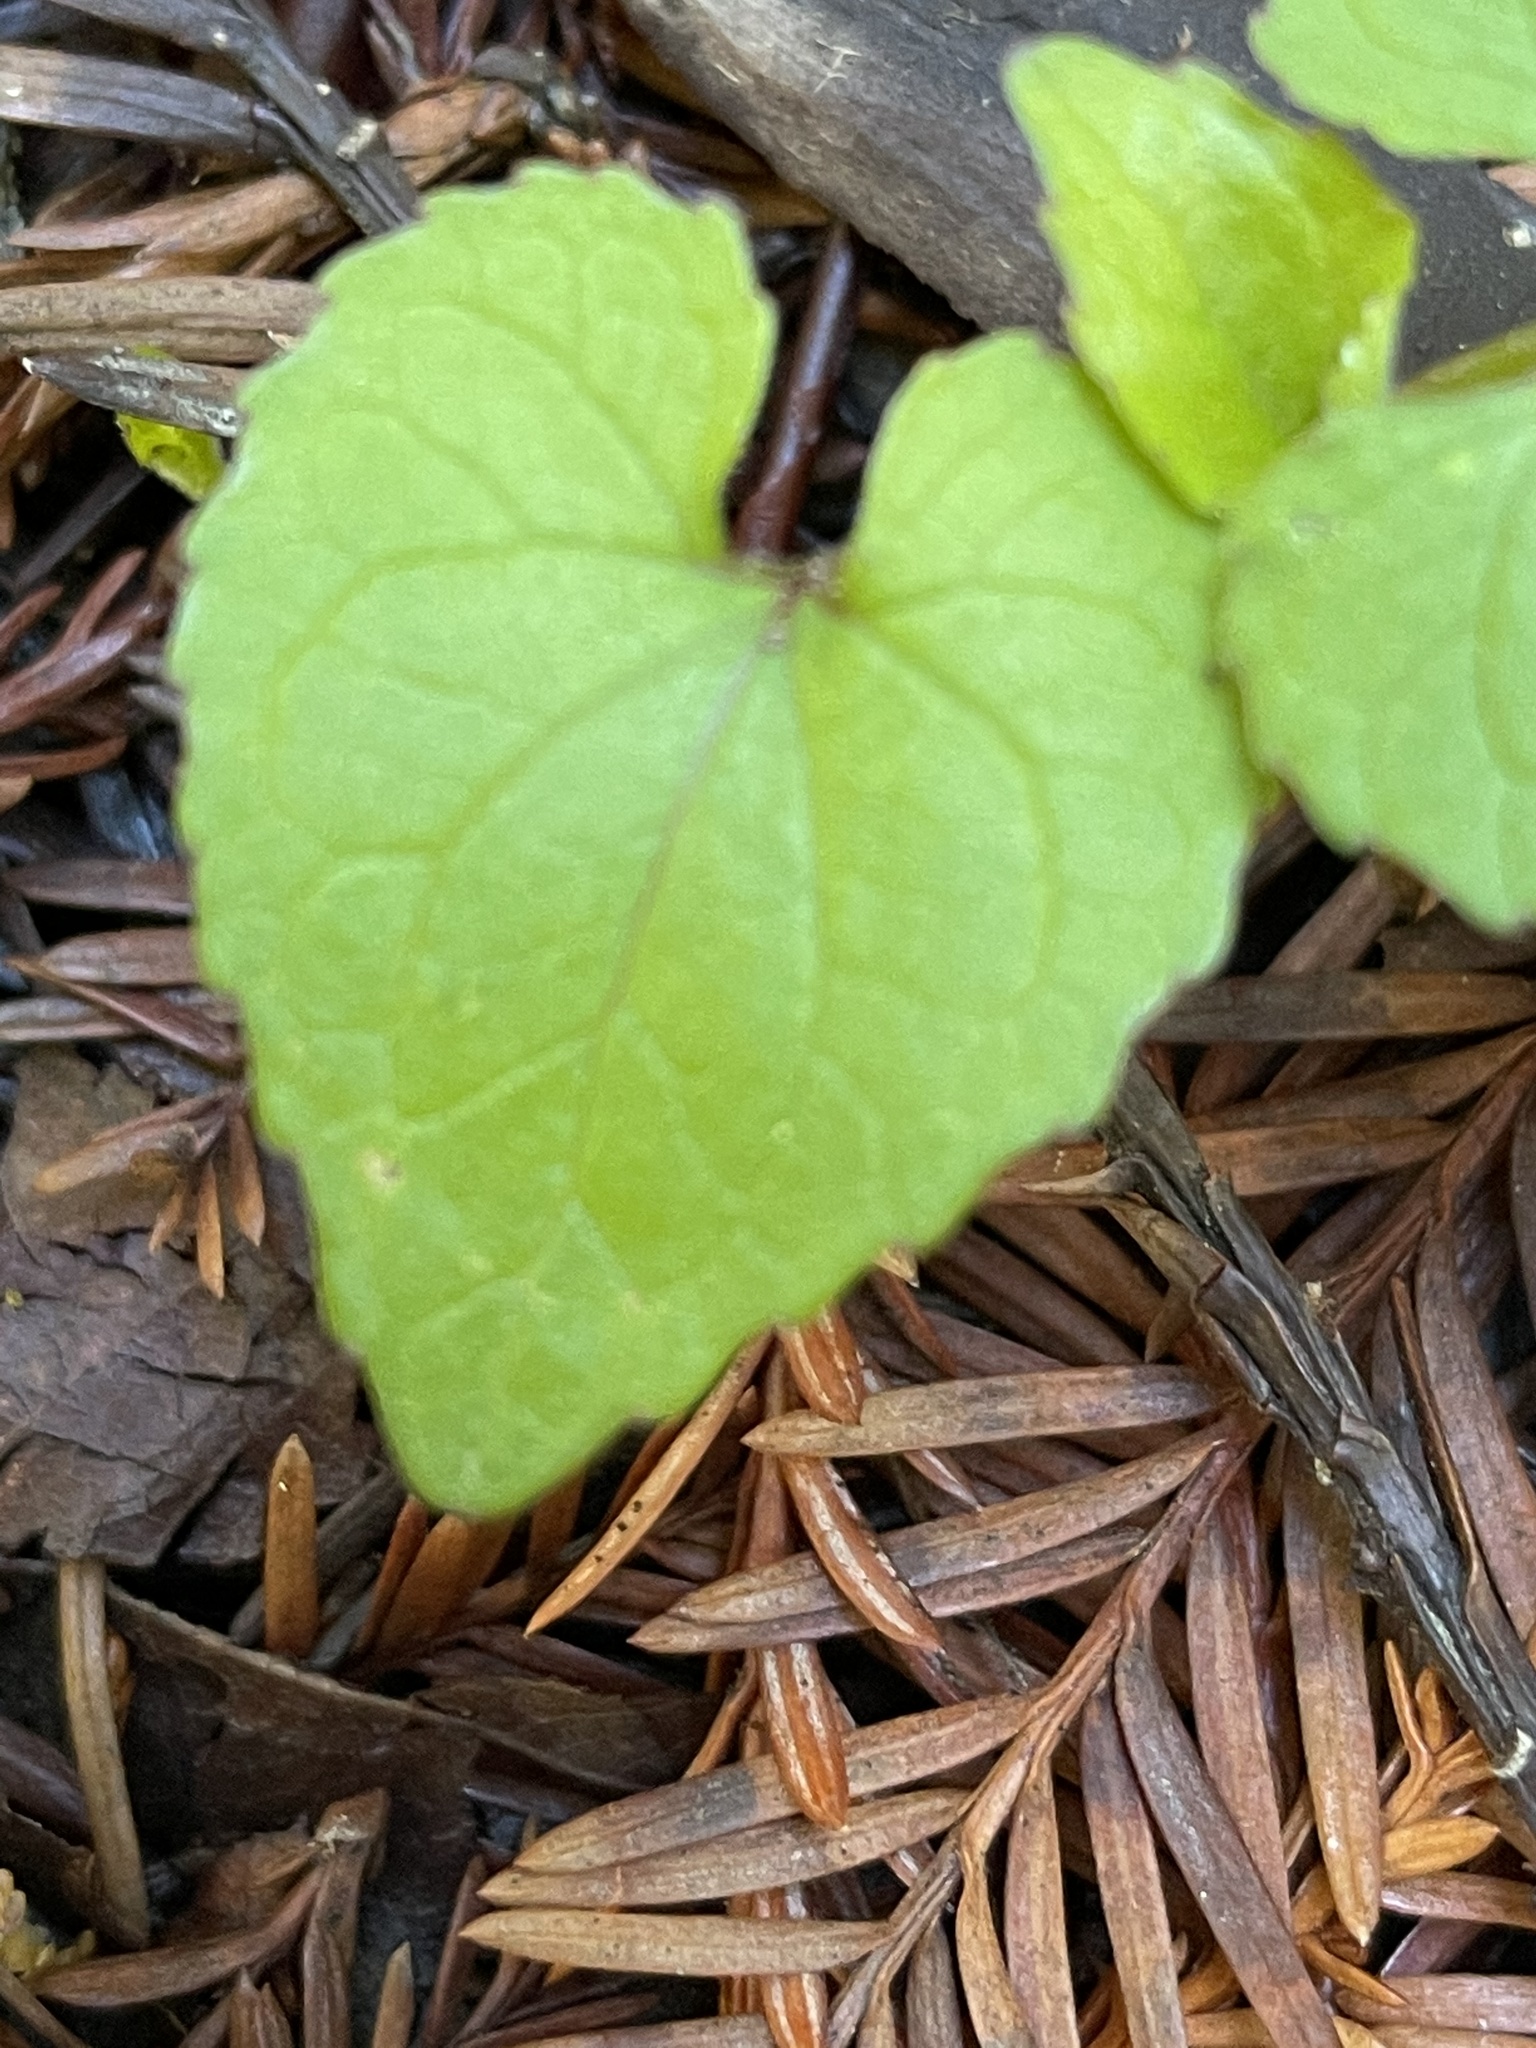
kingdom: Plantae
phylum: Tracheophyta
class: Magnoliopsida
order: Malpighiales
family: Violaceae
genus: Viola
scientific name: Viola ocellata
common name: Western heart's ease
